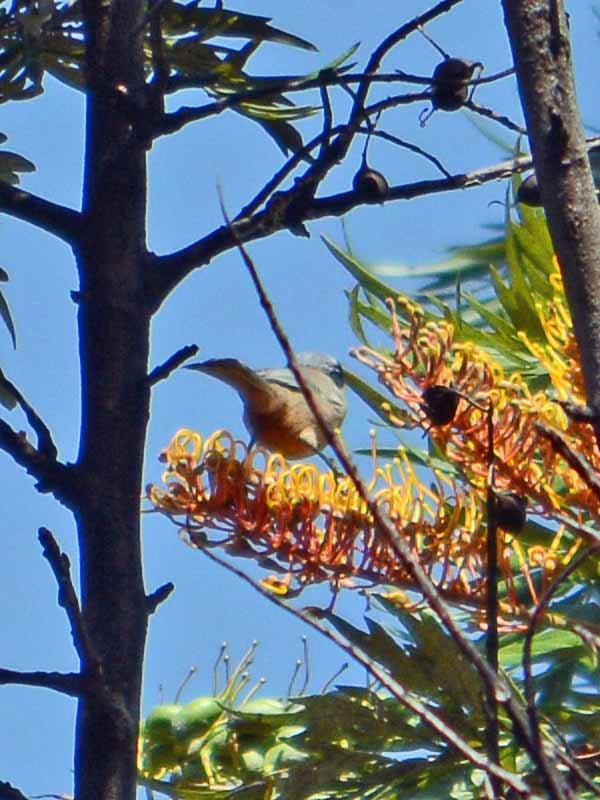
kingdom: Animalia
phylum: Chordata
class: Aves
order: Passeriformes
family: Aegithalidae
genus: Psaltriparus
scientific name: Psaltriparus minimus
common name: American bushtit
